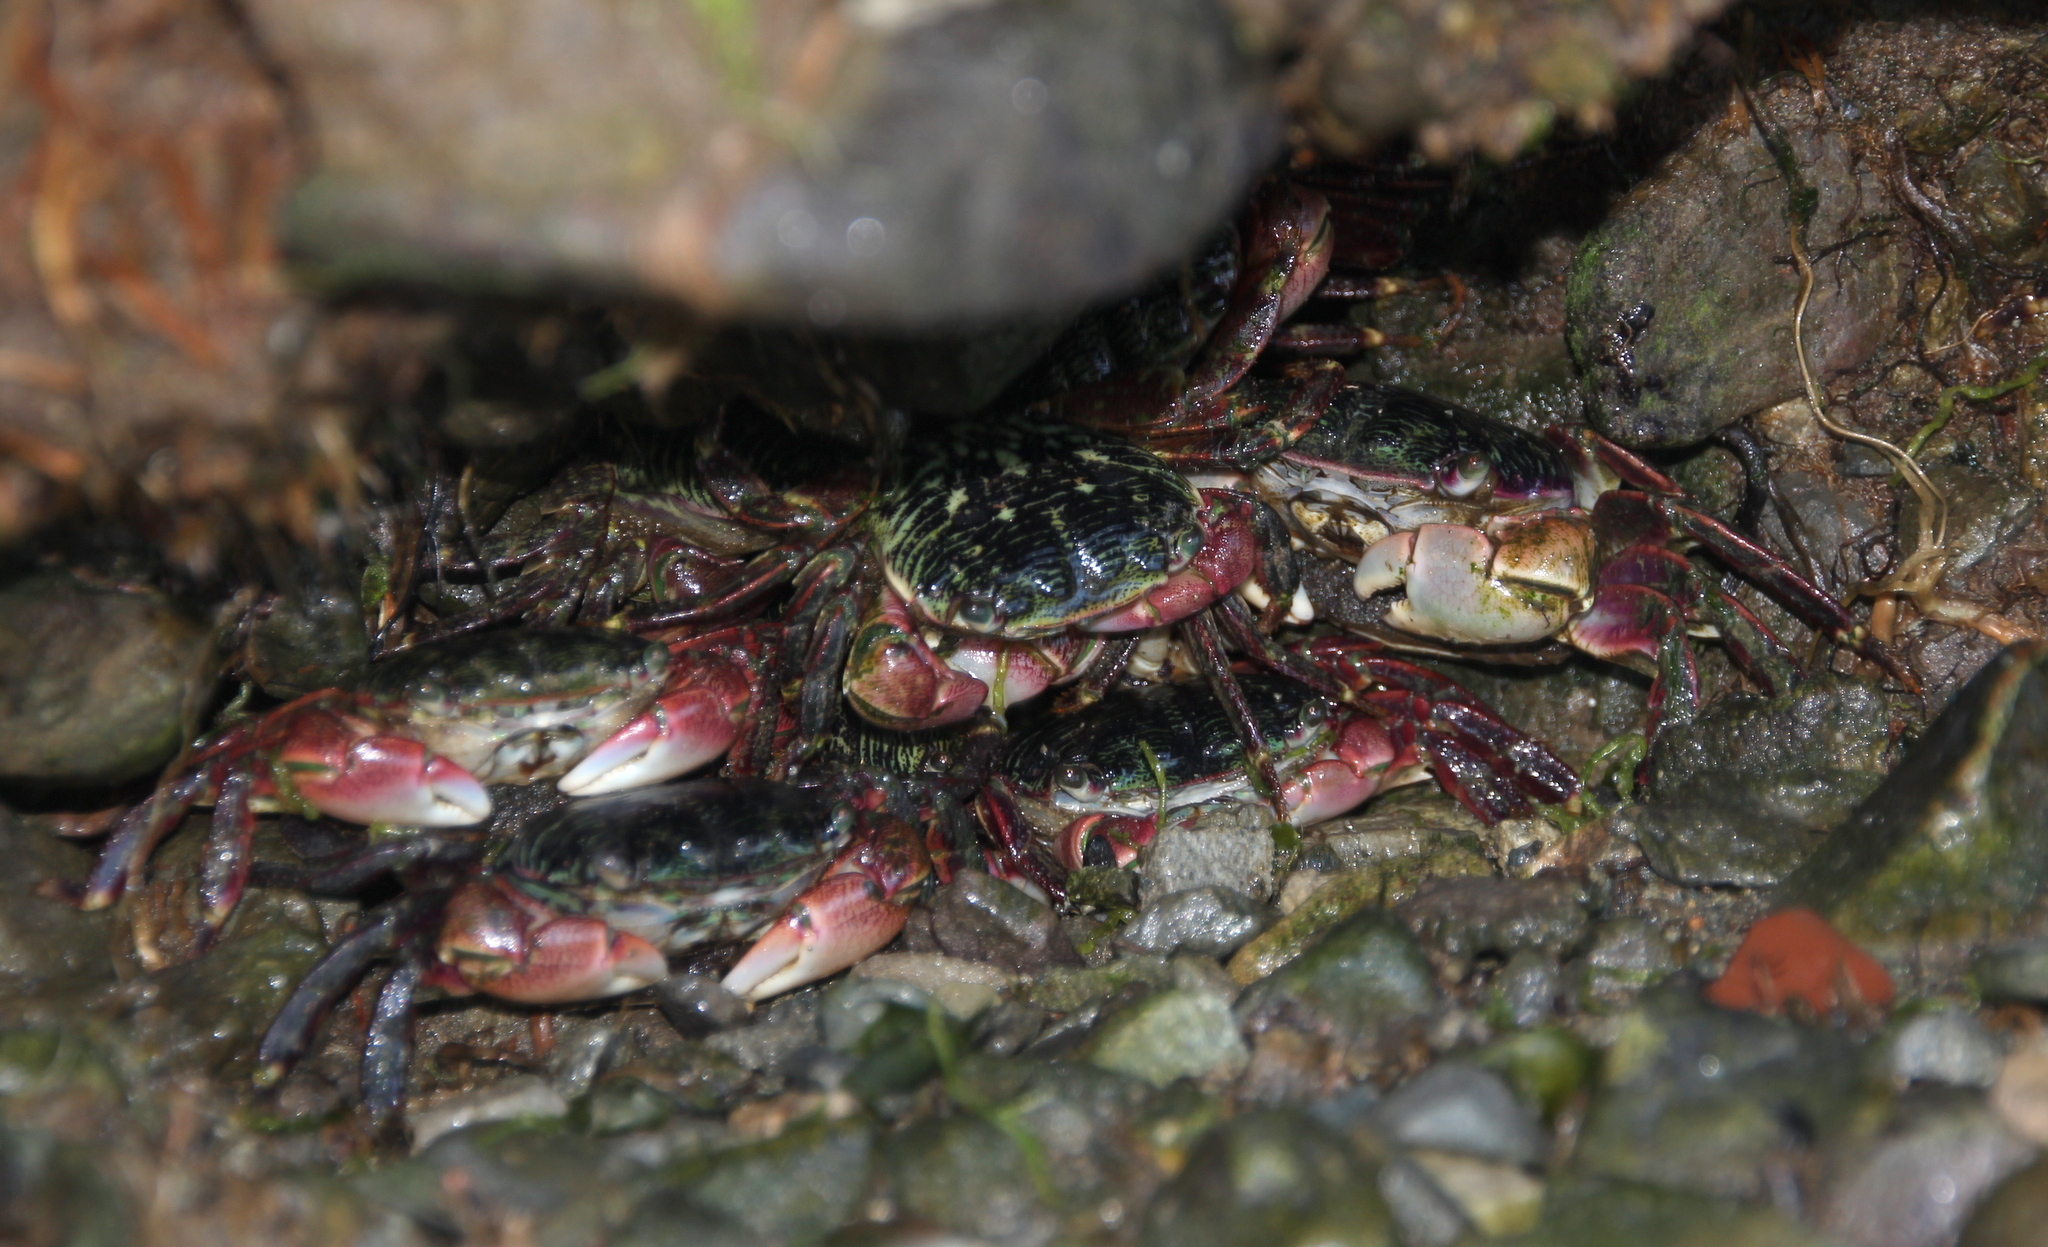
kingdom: Animalia
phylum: Arthropoda
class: Malacostraca
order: Decapoda
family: Grapsidae
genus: Pachygrapsus
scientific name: Pachygrapsus crassipes
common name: Striped shore crab
